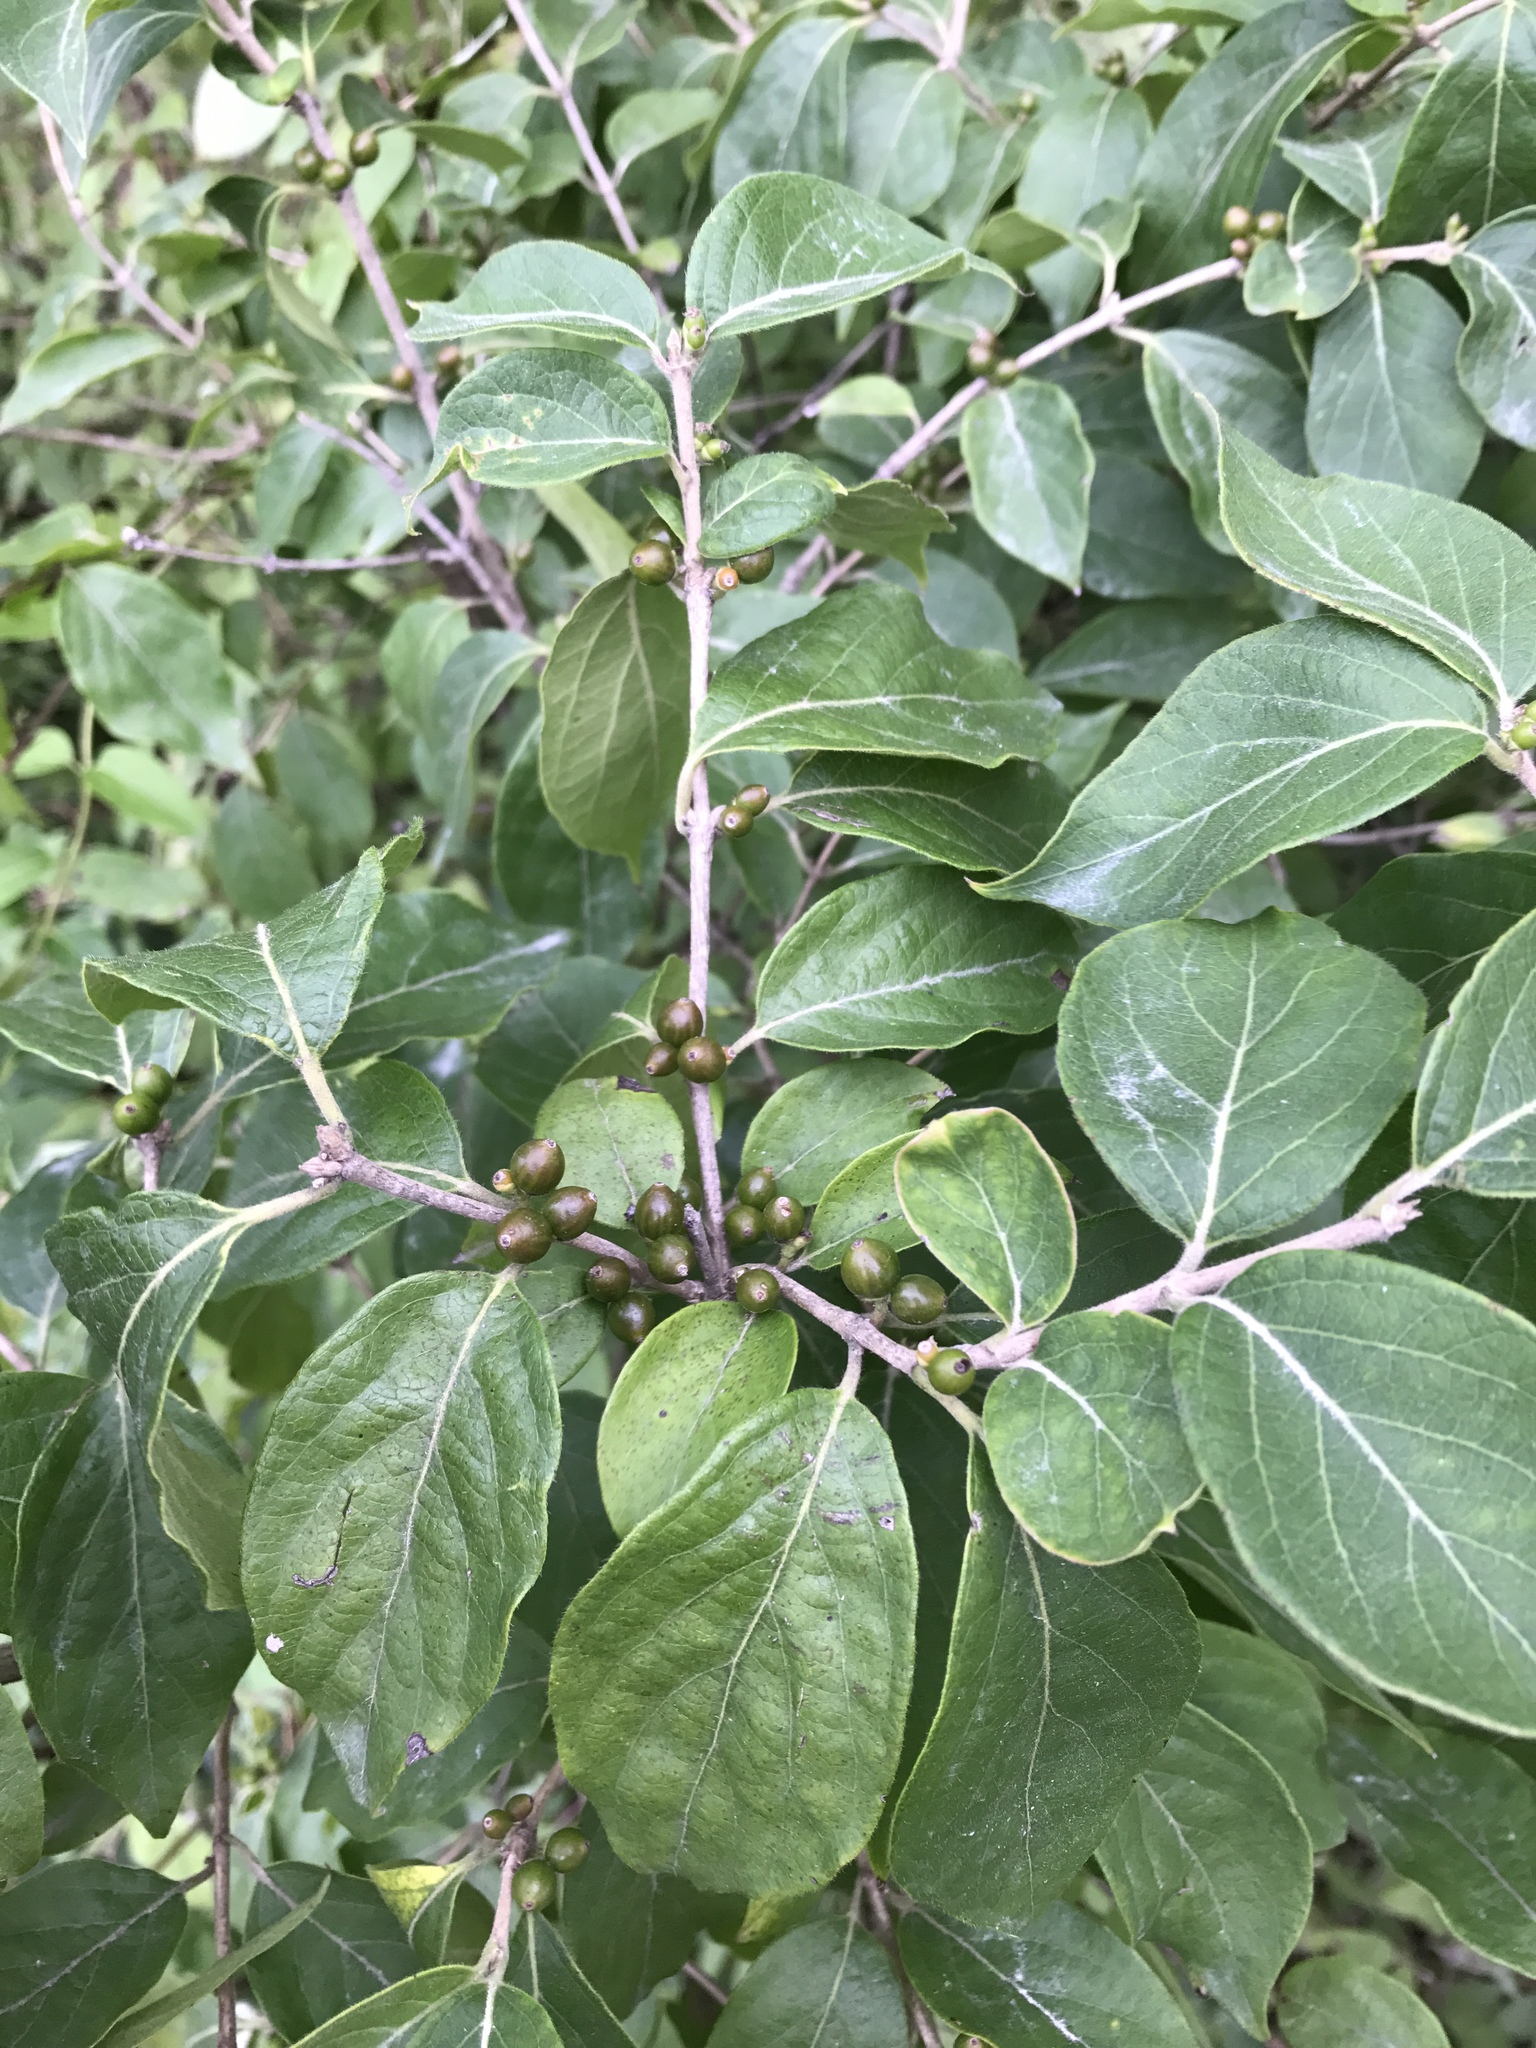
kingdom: Plantae
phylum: Tracheophyta
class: Magnoliopsida
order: Dipsacales
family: Caprifoliaceae
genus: Lonicera
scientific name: Lonicera maackii
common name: Amur honeysuckle
